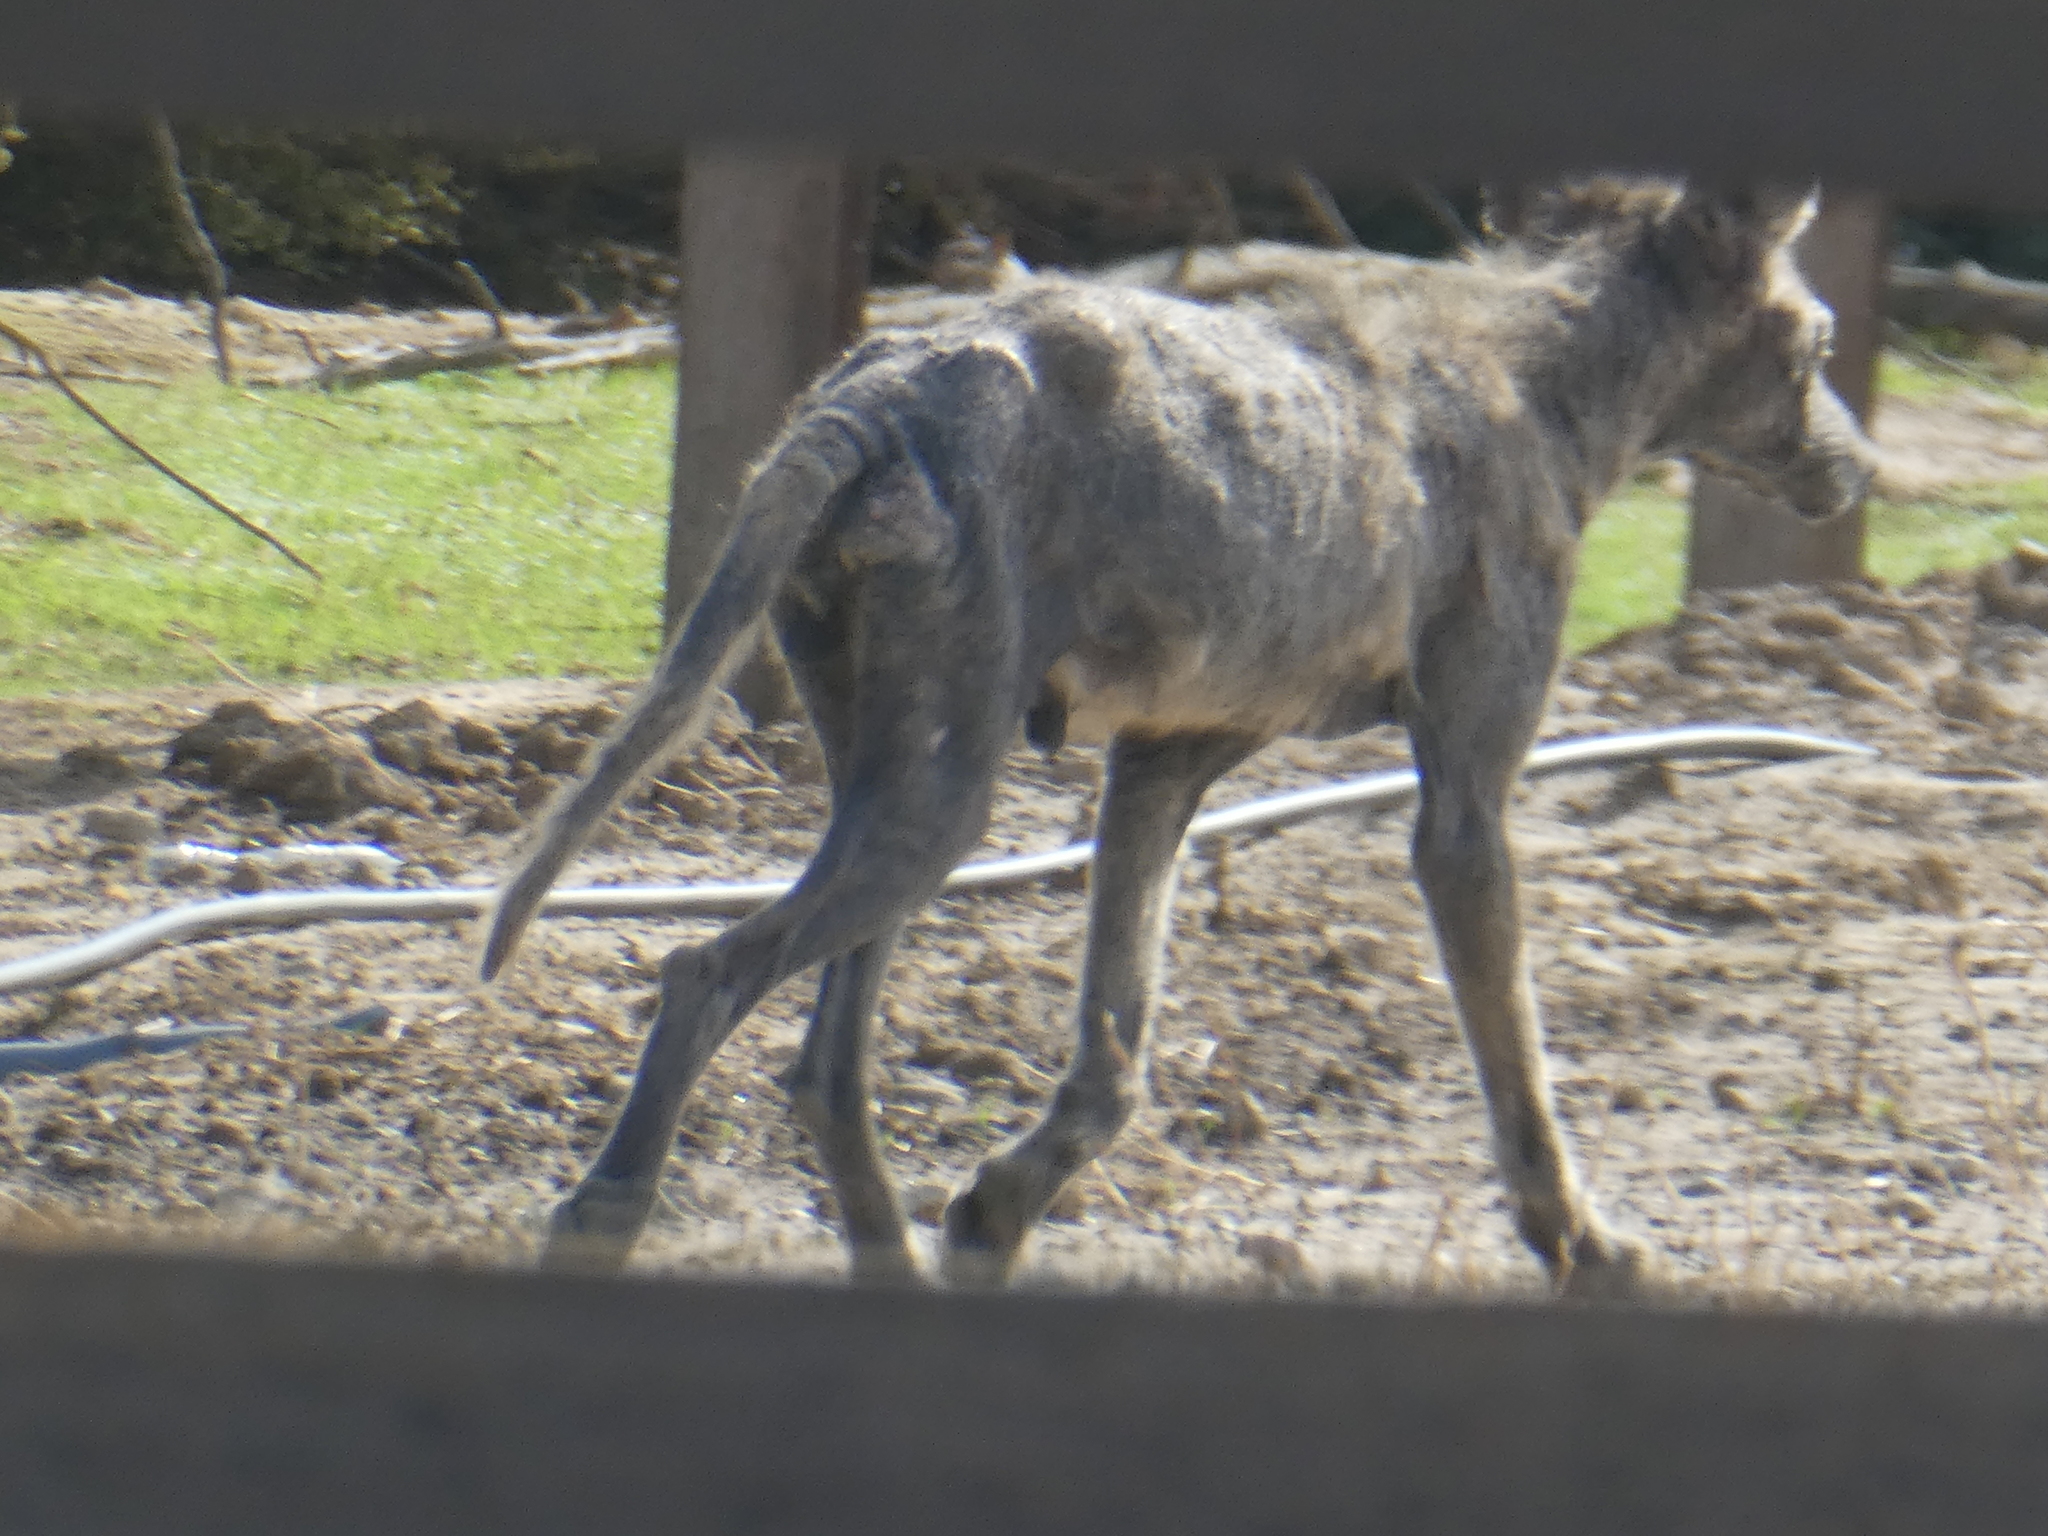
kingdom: Animalia
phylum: Chordata
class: Mammalia
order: Carnivora
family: Canidae
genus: Canis
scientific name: Canis latrans
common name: Coyote
